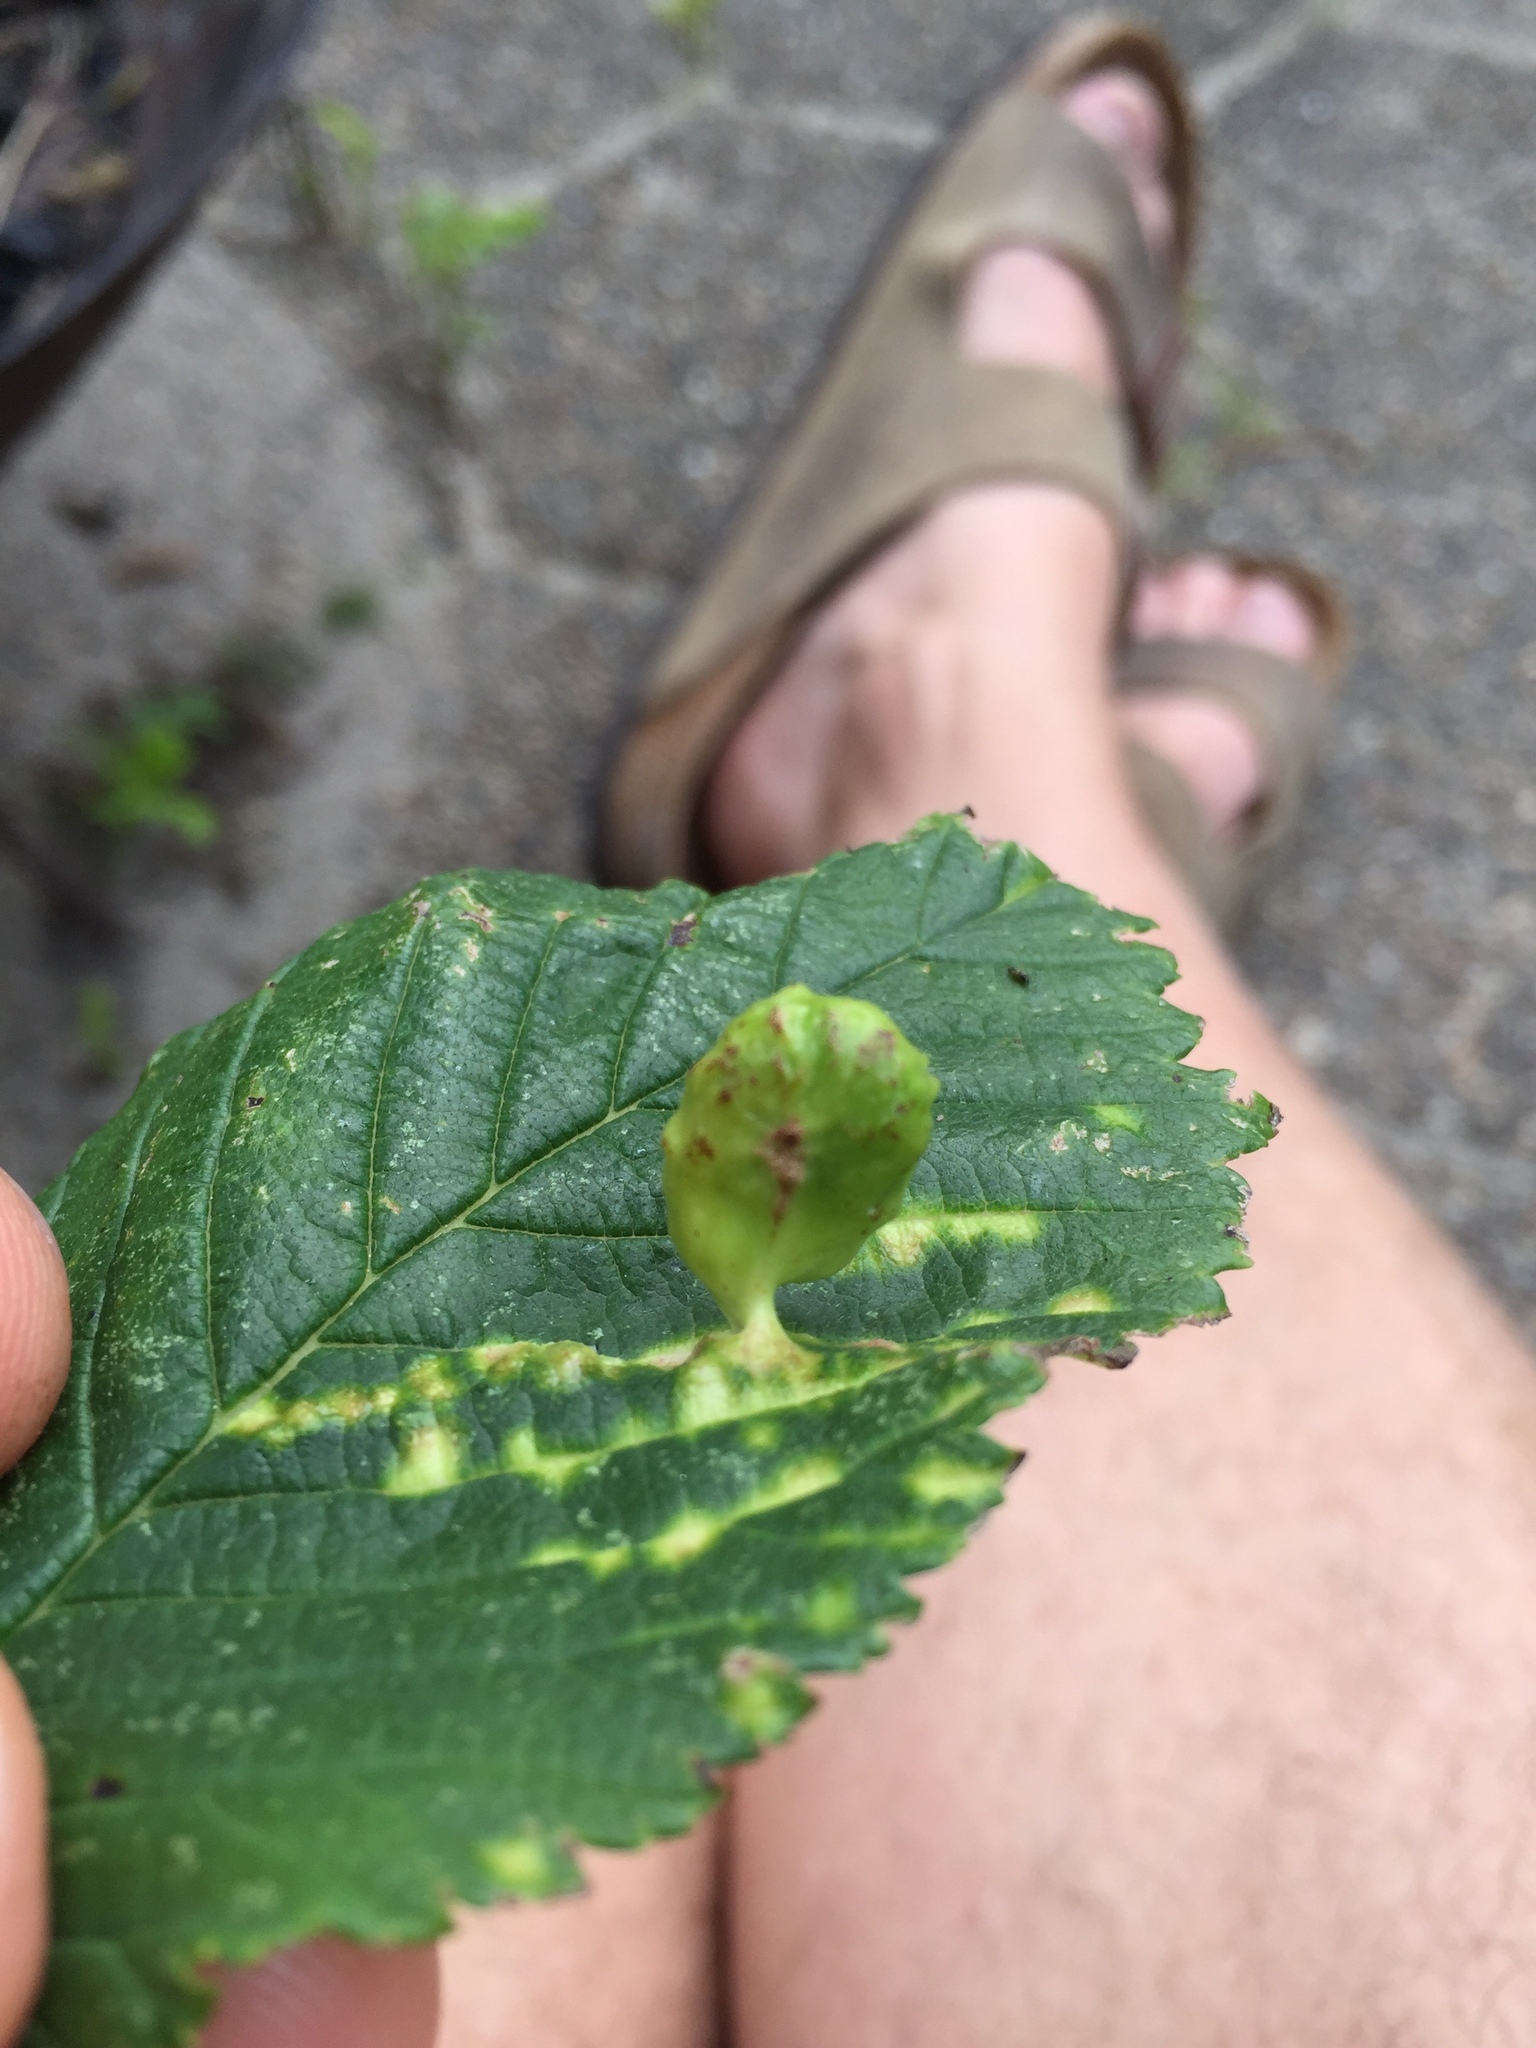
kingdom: Animalia
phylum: Arthropoda
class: Insecta
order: Hemiptera
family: Aphididae
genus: Tetraneura
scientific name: Tetraneura ulmi
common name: Aphid
